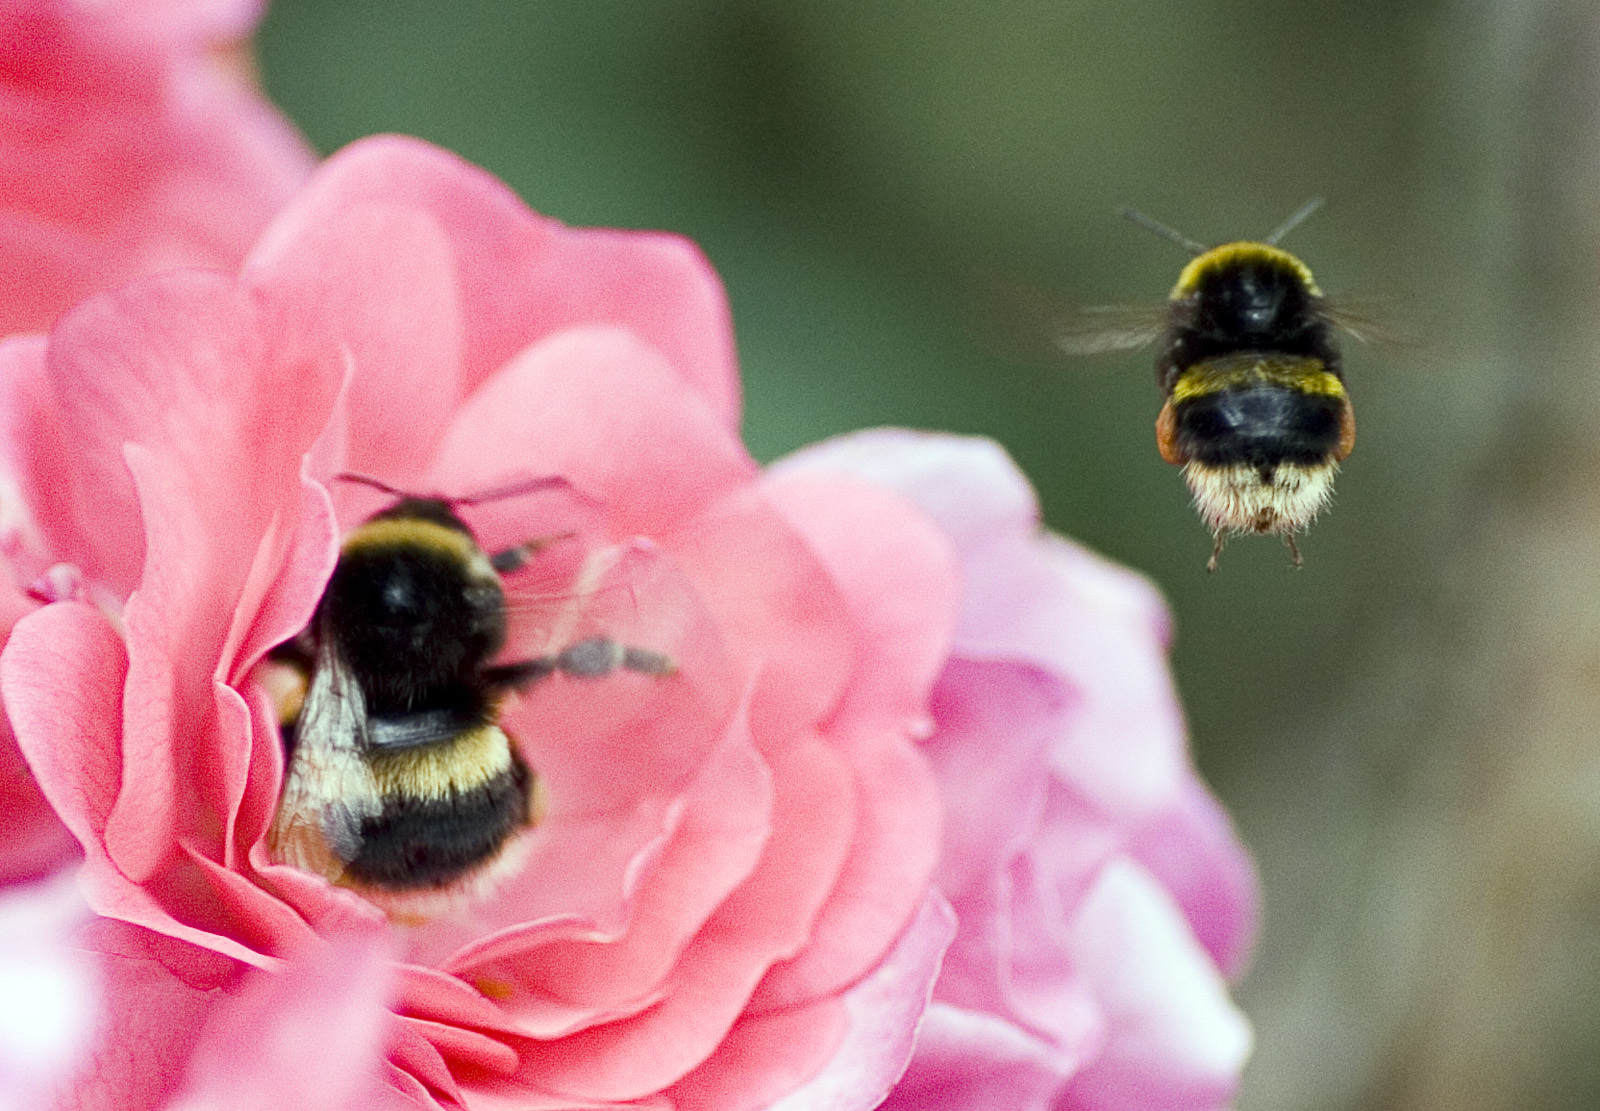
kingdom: Animalia
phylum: Arthropoda
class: Insecta
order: Hymenoptera
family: Apidae
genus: Bombus
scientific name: Bombus terrestris
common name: Buff-tailed bumblebee
